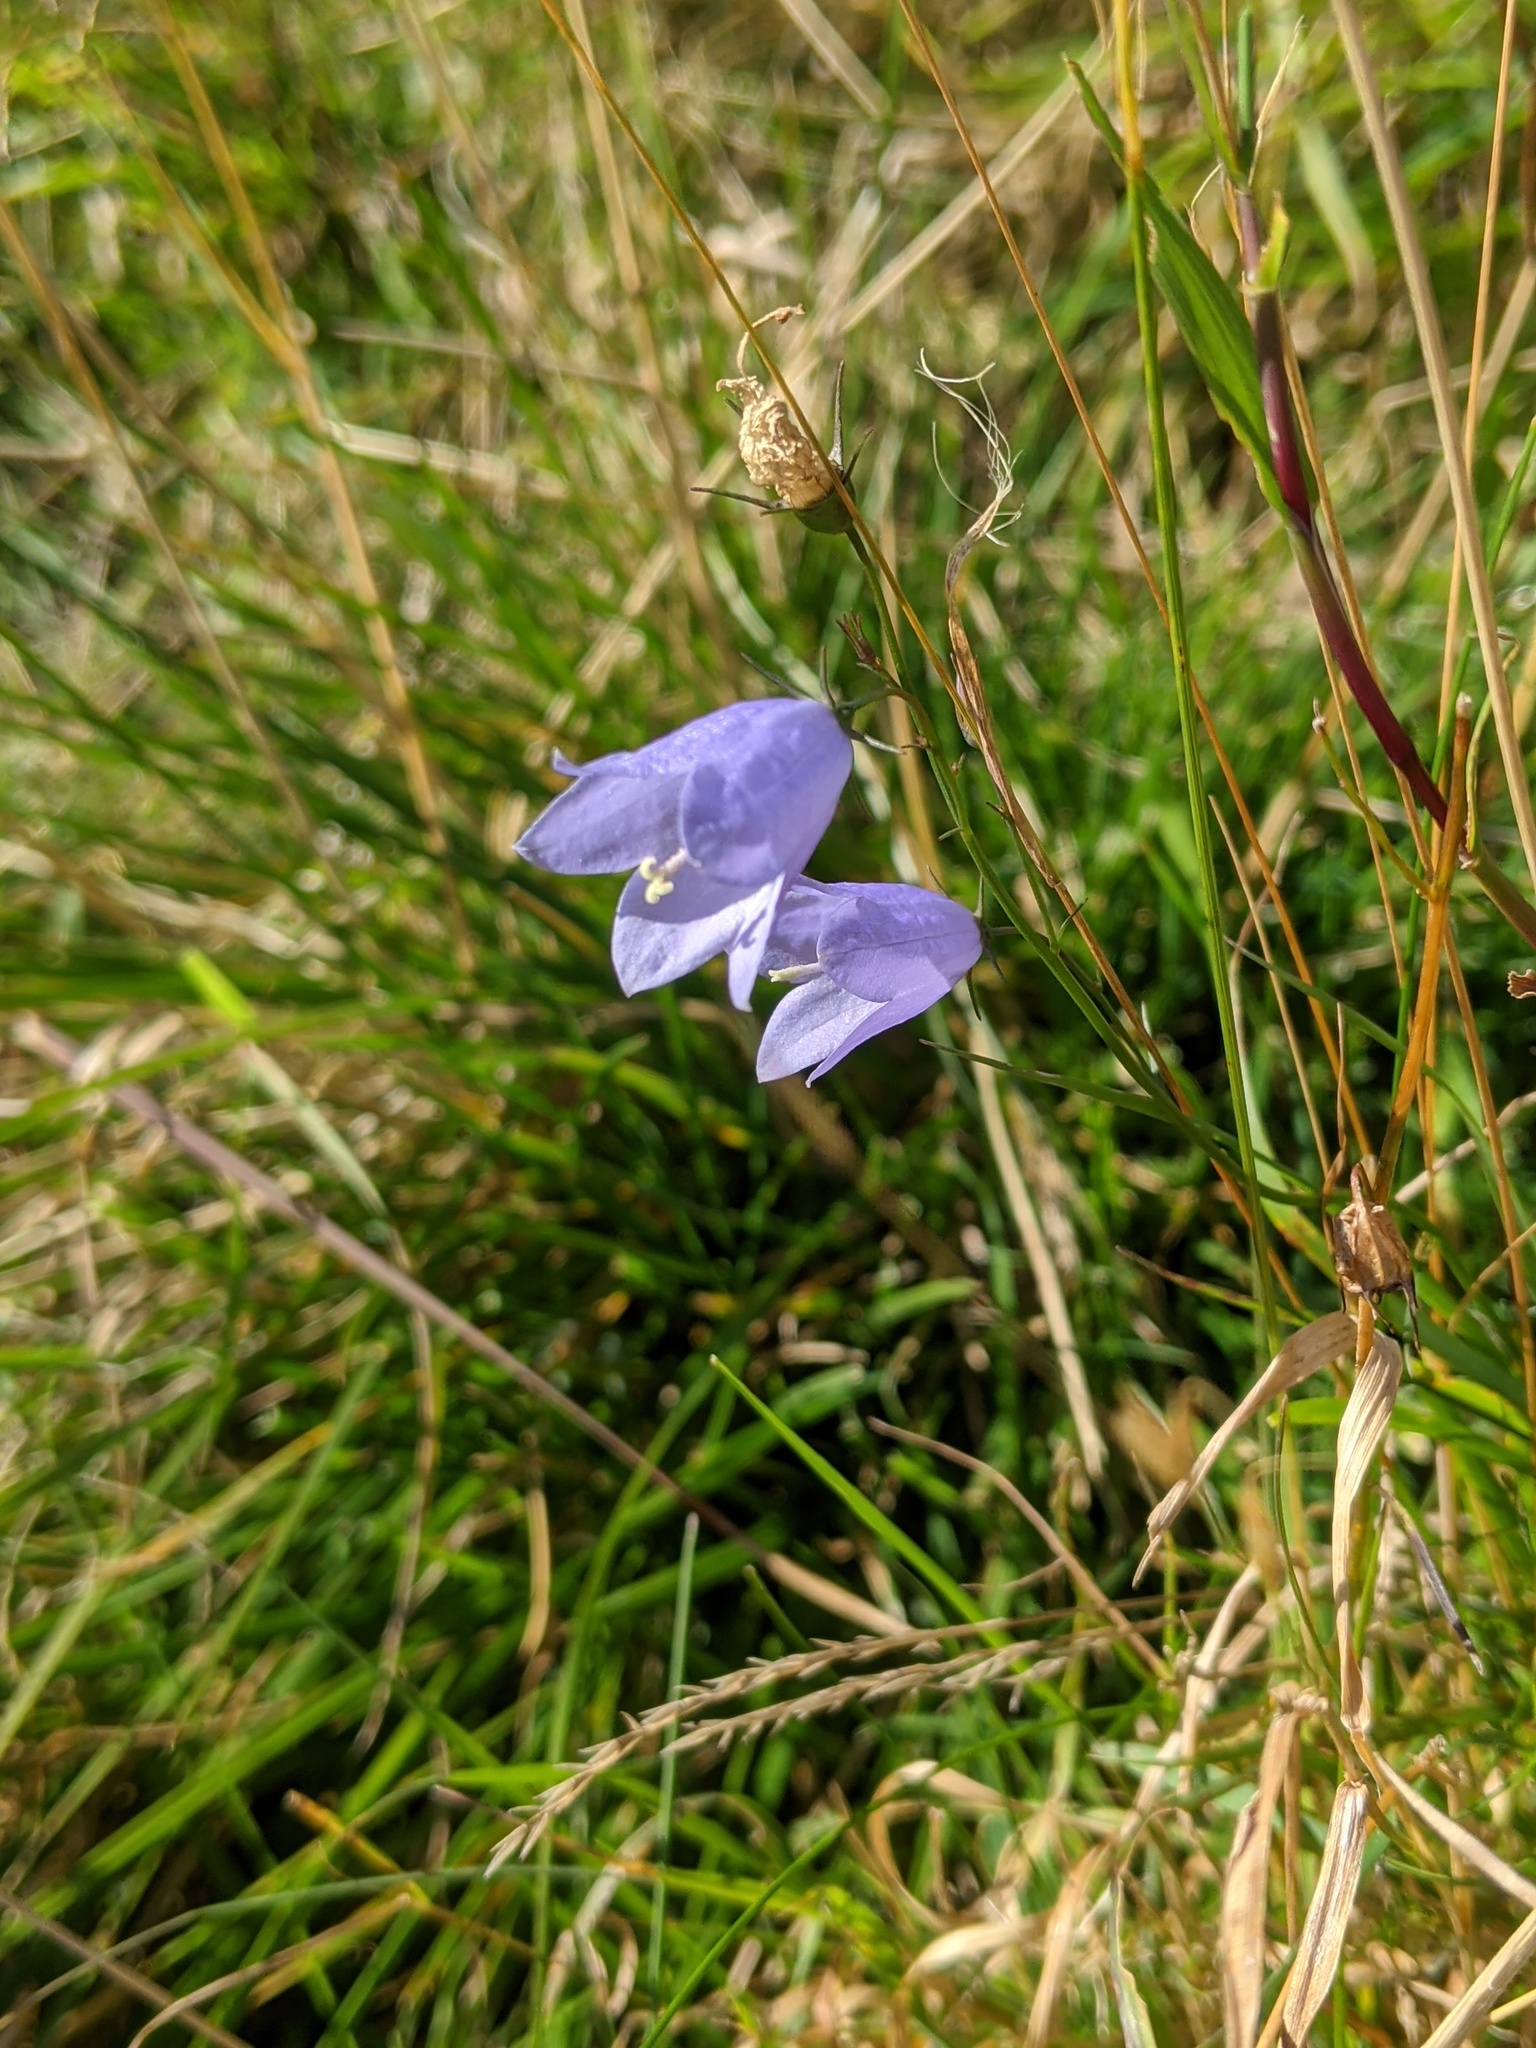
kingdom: Plantae
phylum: Tracheophyta
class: Magnoliopsida
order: Asterales
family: Campanulaceae
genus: Campanula
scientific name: Campanula rotundifolia
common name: Harebell
